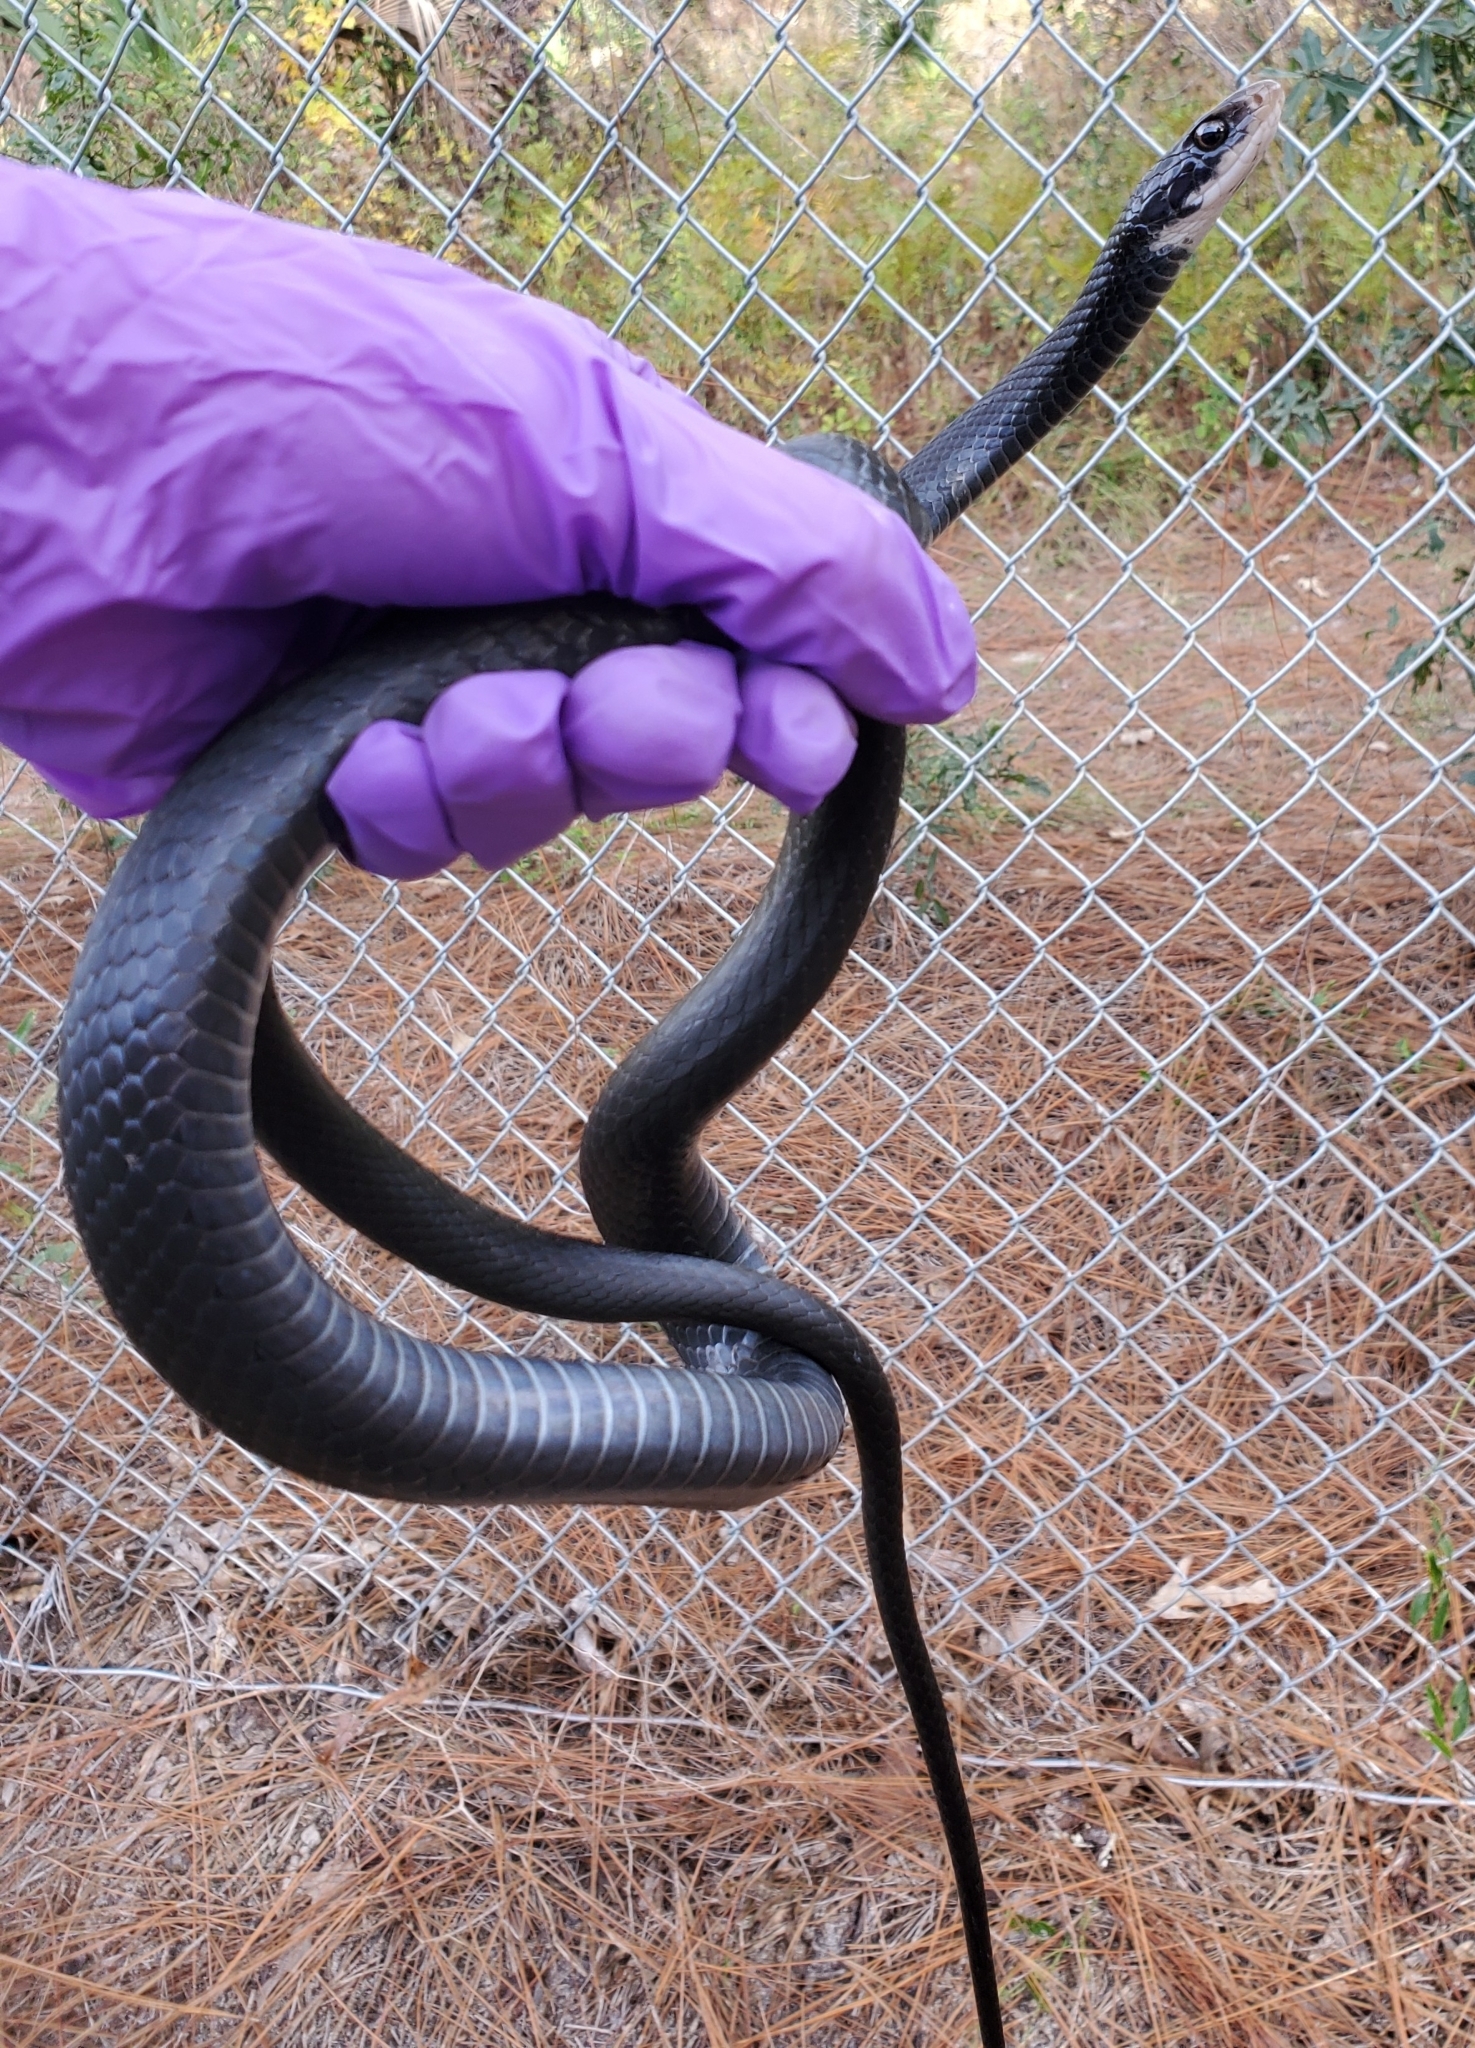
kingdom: Animalia
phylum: Chordata
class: Squamata
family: Colubridae
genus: Coluber
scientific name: Coluber constrictor
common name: Eastern racer
